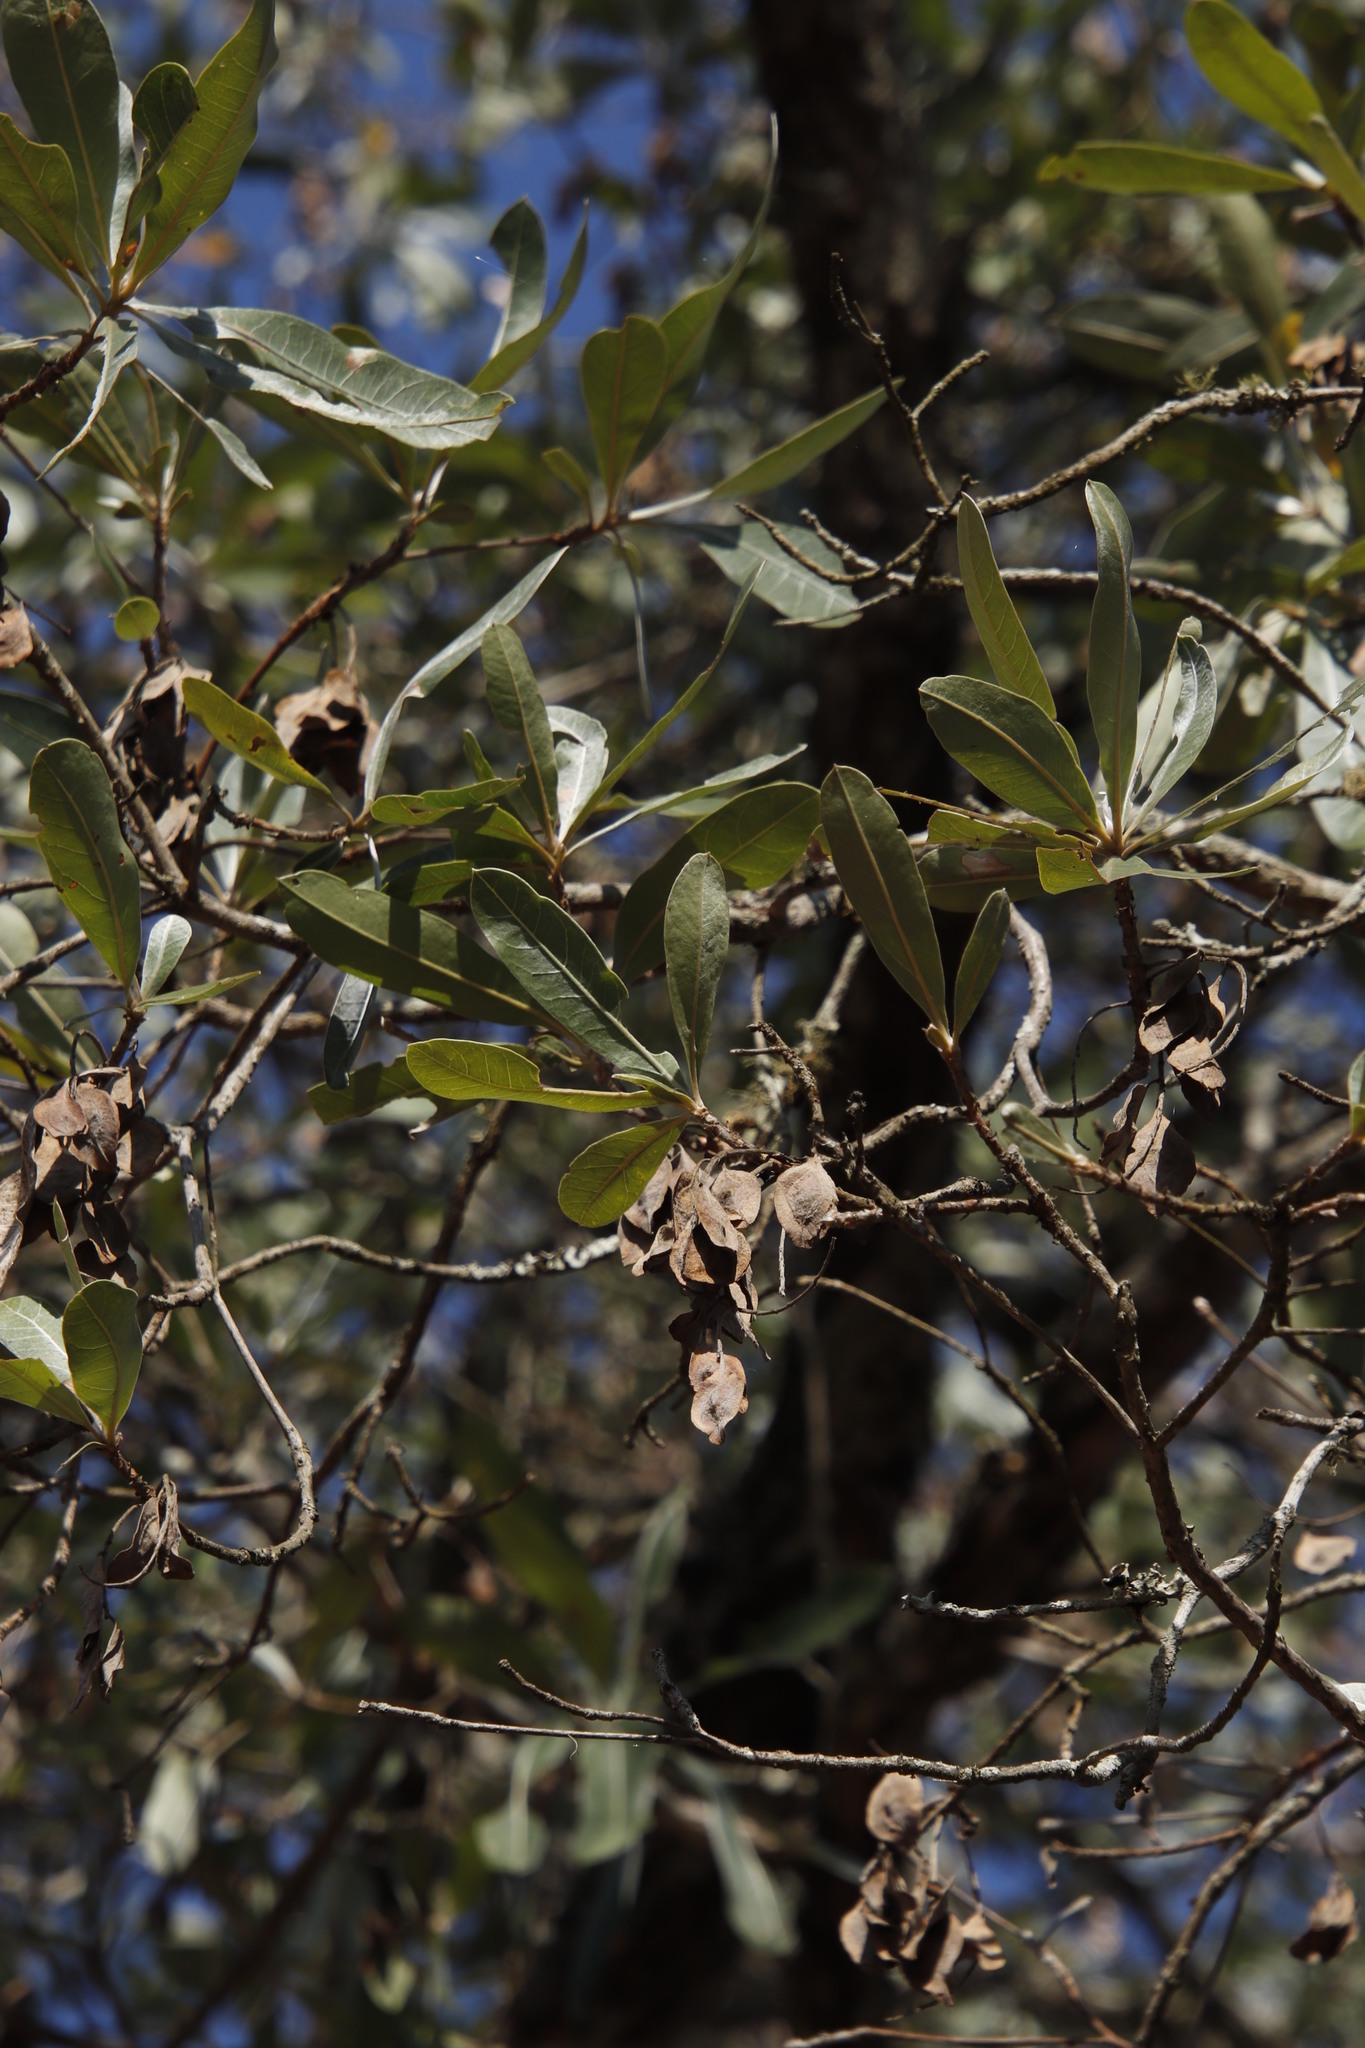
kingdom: Plantae
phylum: Tracheophyta
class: Magnoliopsida
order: Myrtales
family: Combretaceae
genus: Terminalia
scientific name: Terminalia sericea
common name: Clusterleaf
